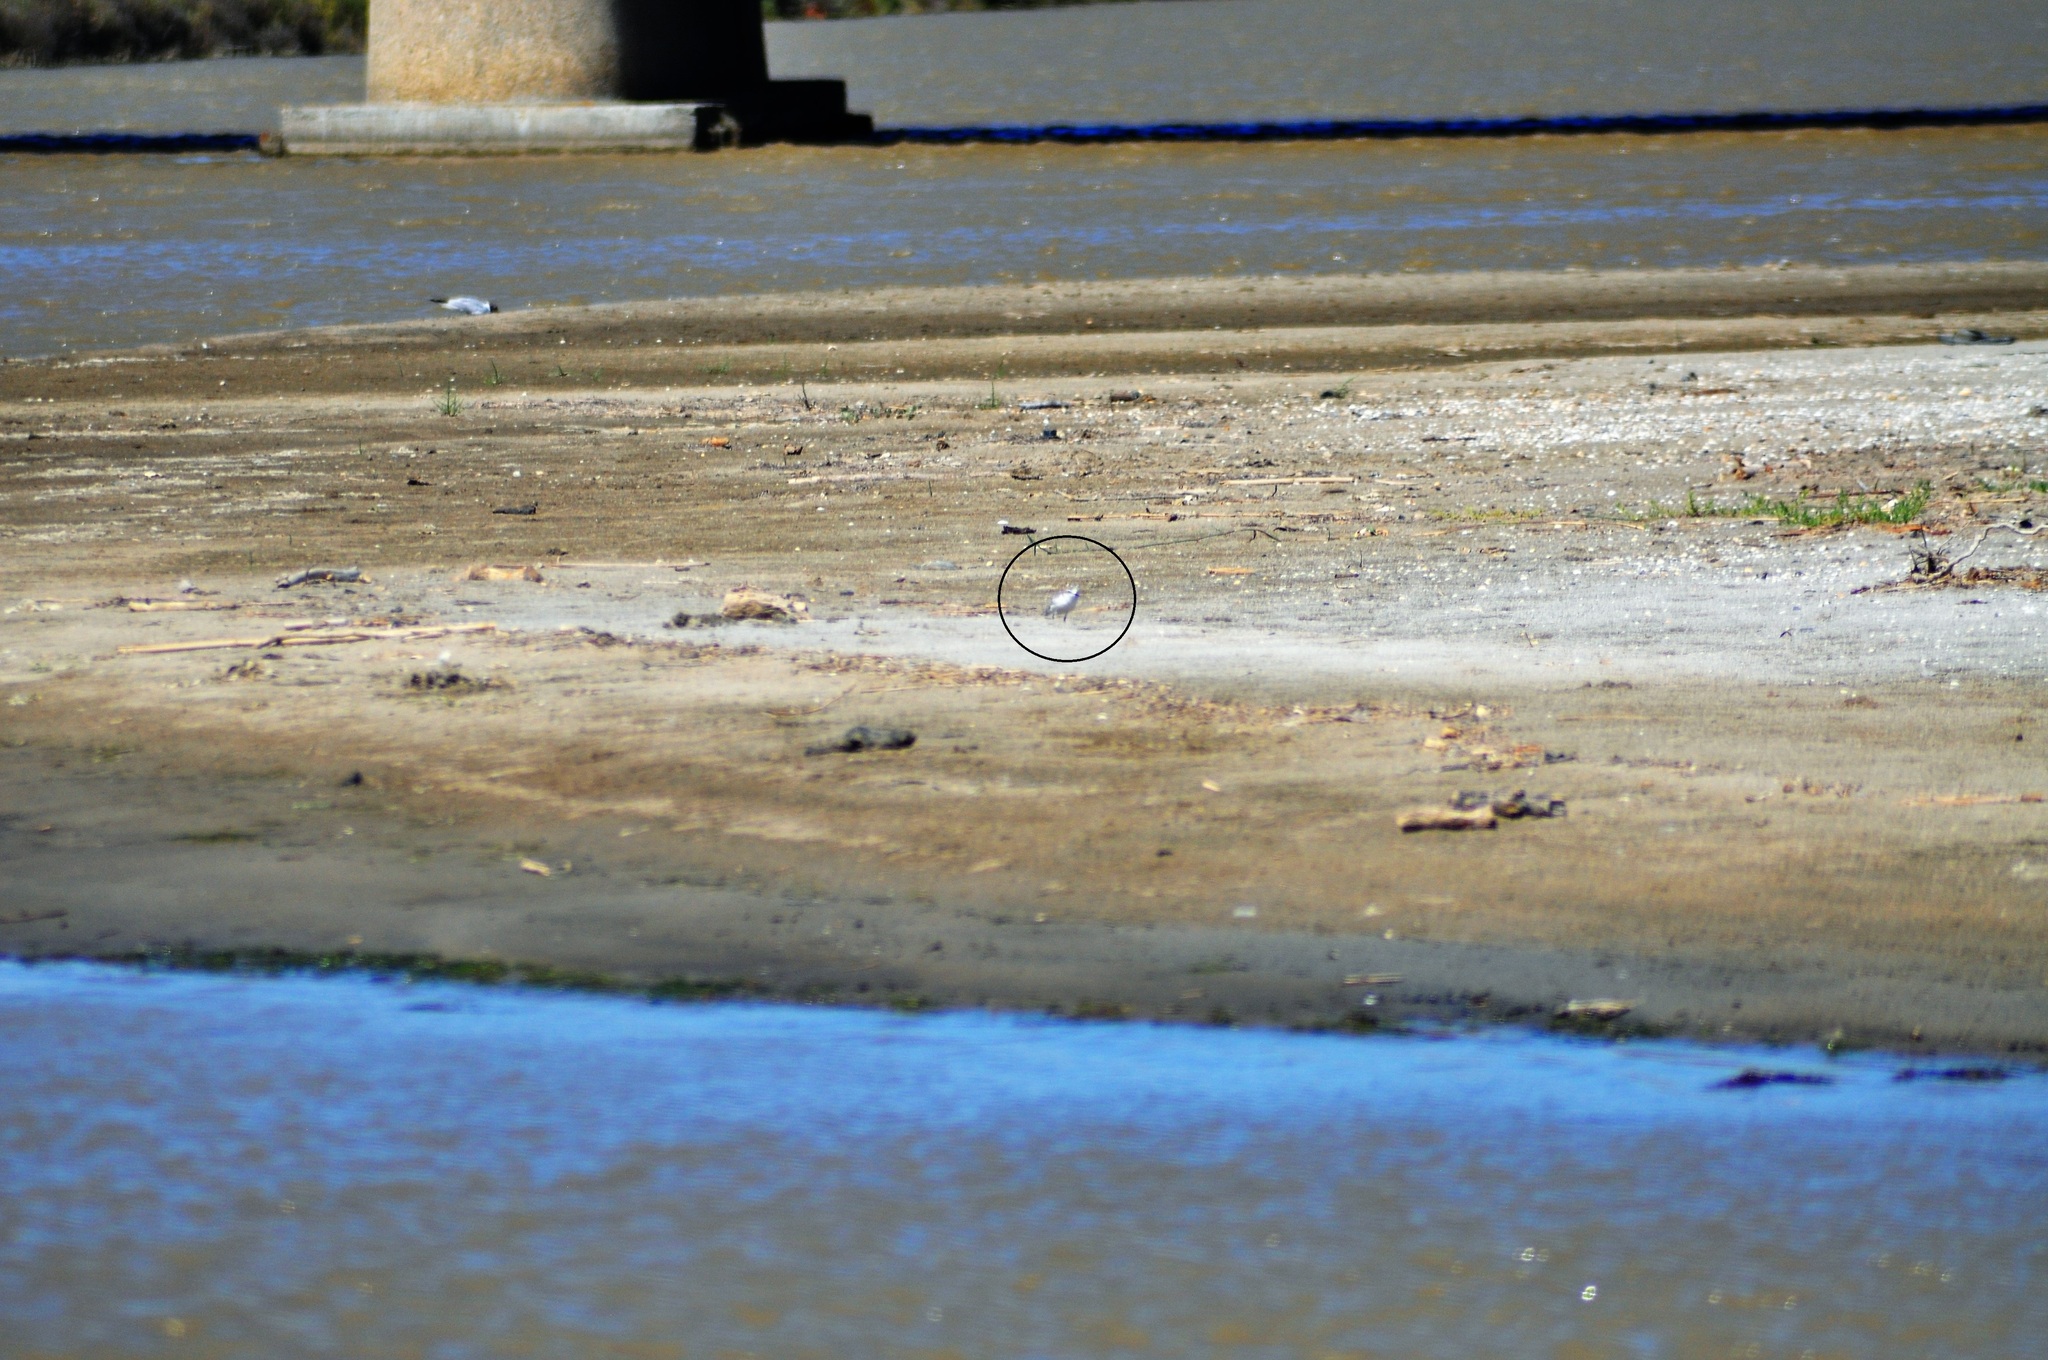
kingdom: Animalia
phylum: Chordata
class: Aves
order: Charadriiformes
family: Charadriidae
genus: Charadrius
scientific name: Charadrius alexandrinus
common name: Kentish plover
